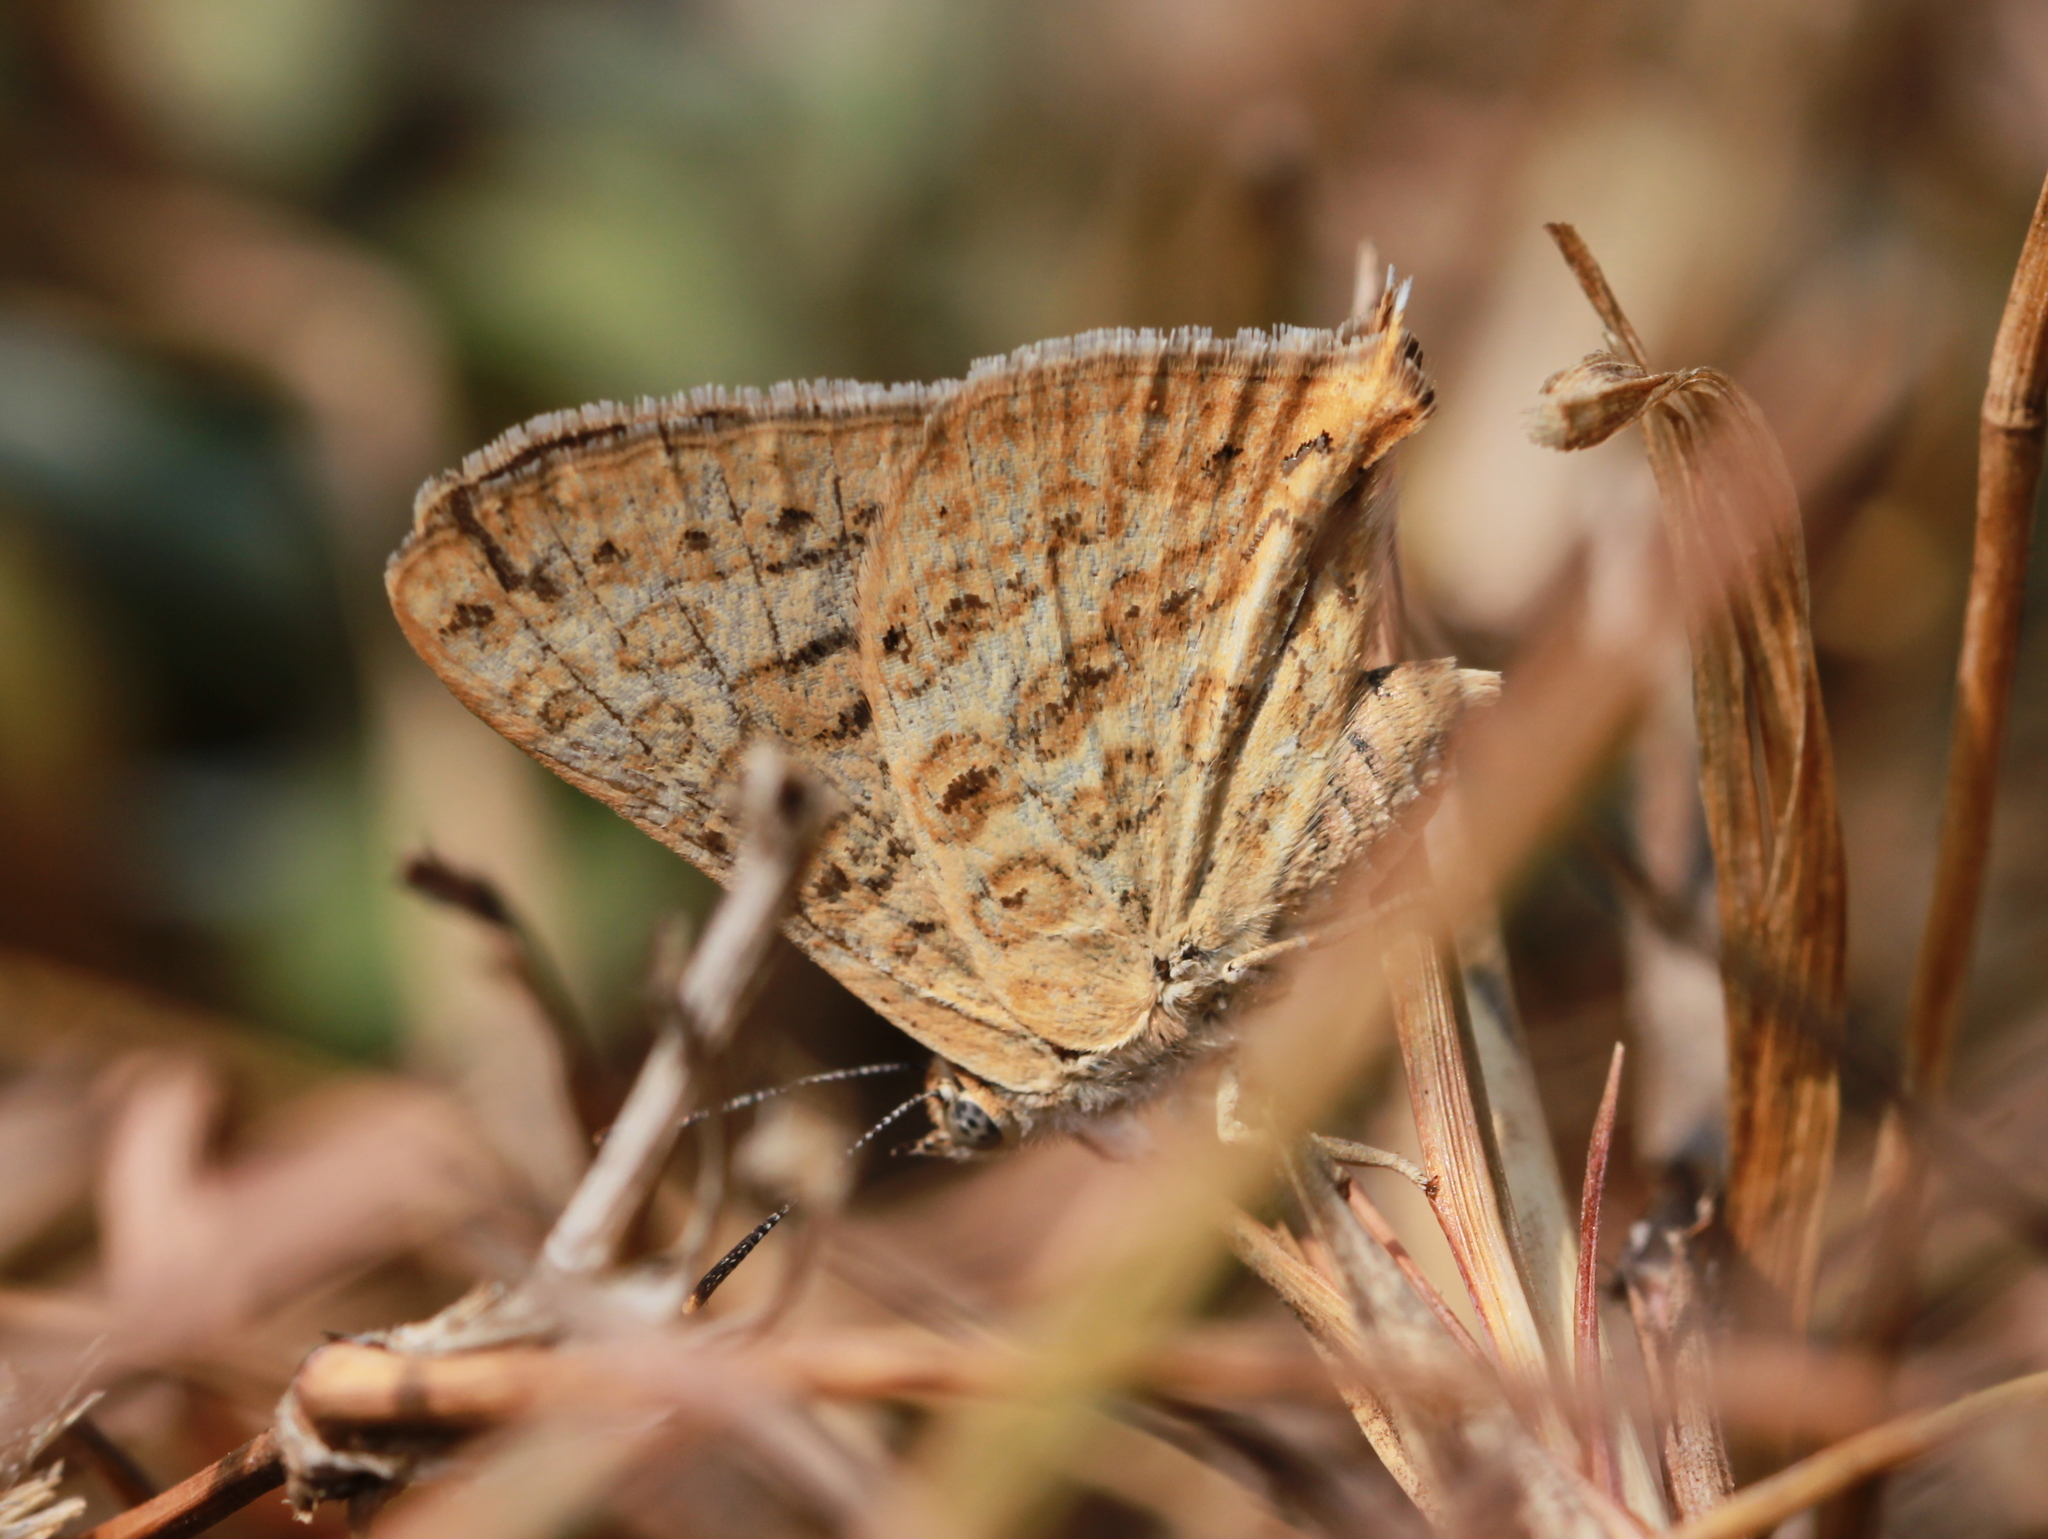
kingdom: Animalia
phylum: Arthropoda
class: Insecta
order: Lepidoptera
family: Lycaenidae
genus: Aphnaeus
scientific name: Aphnaeus lilacinus
